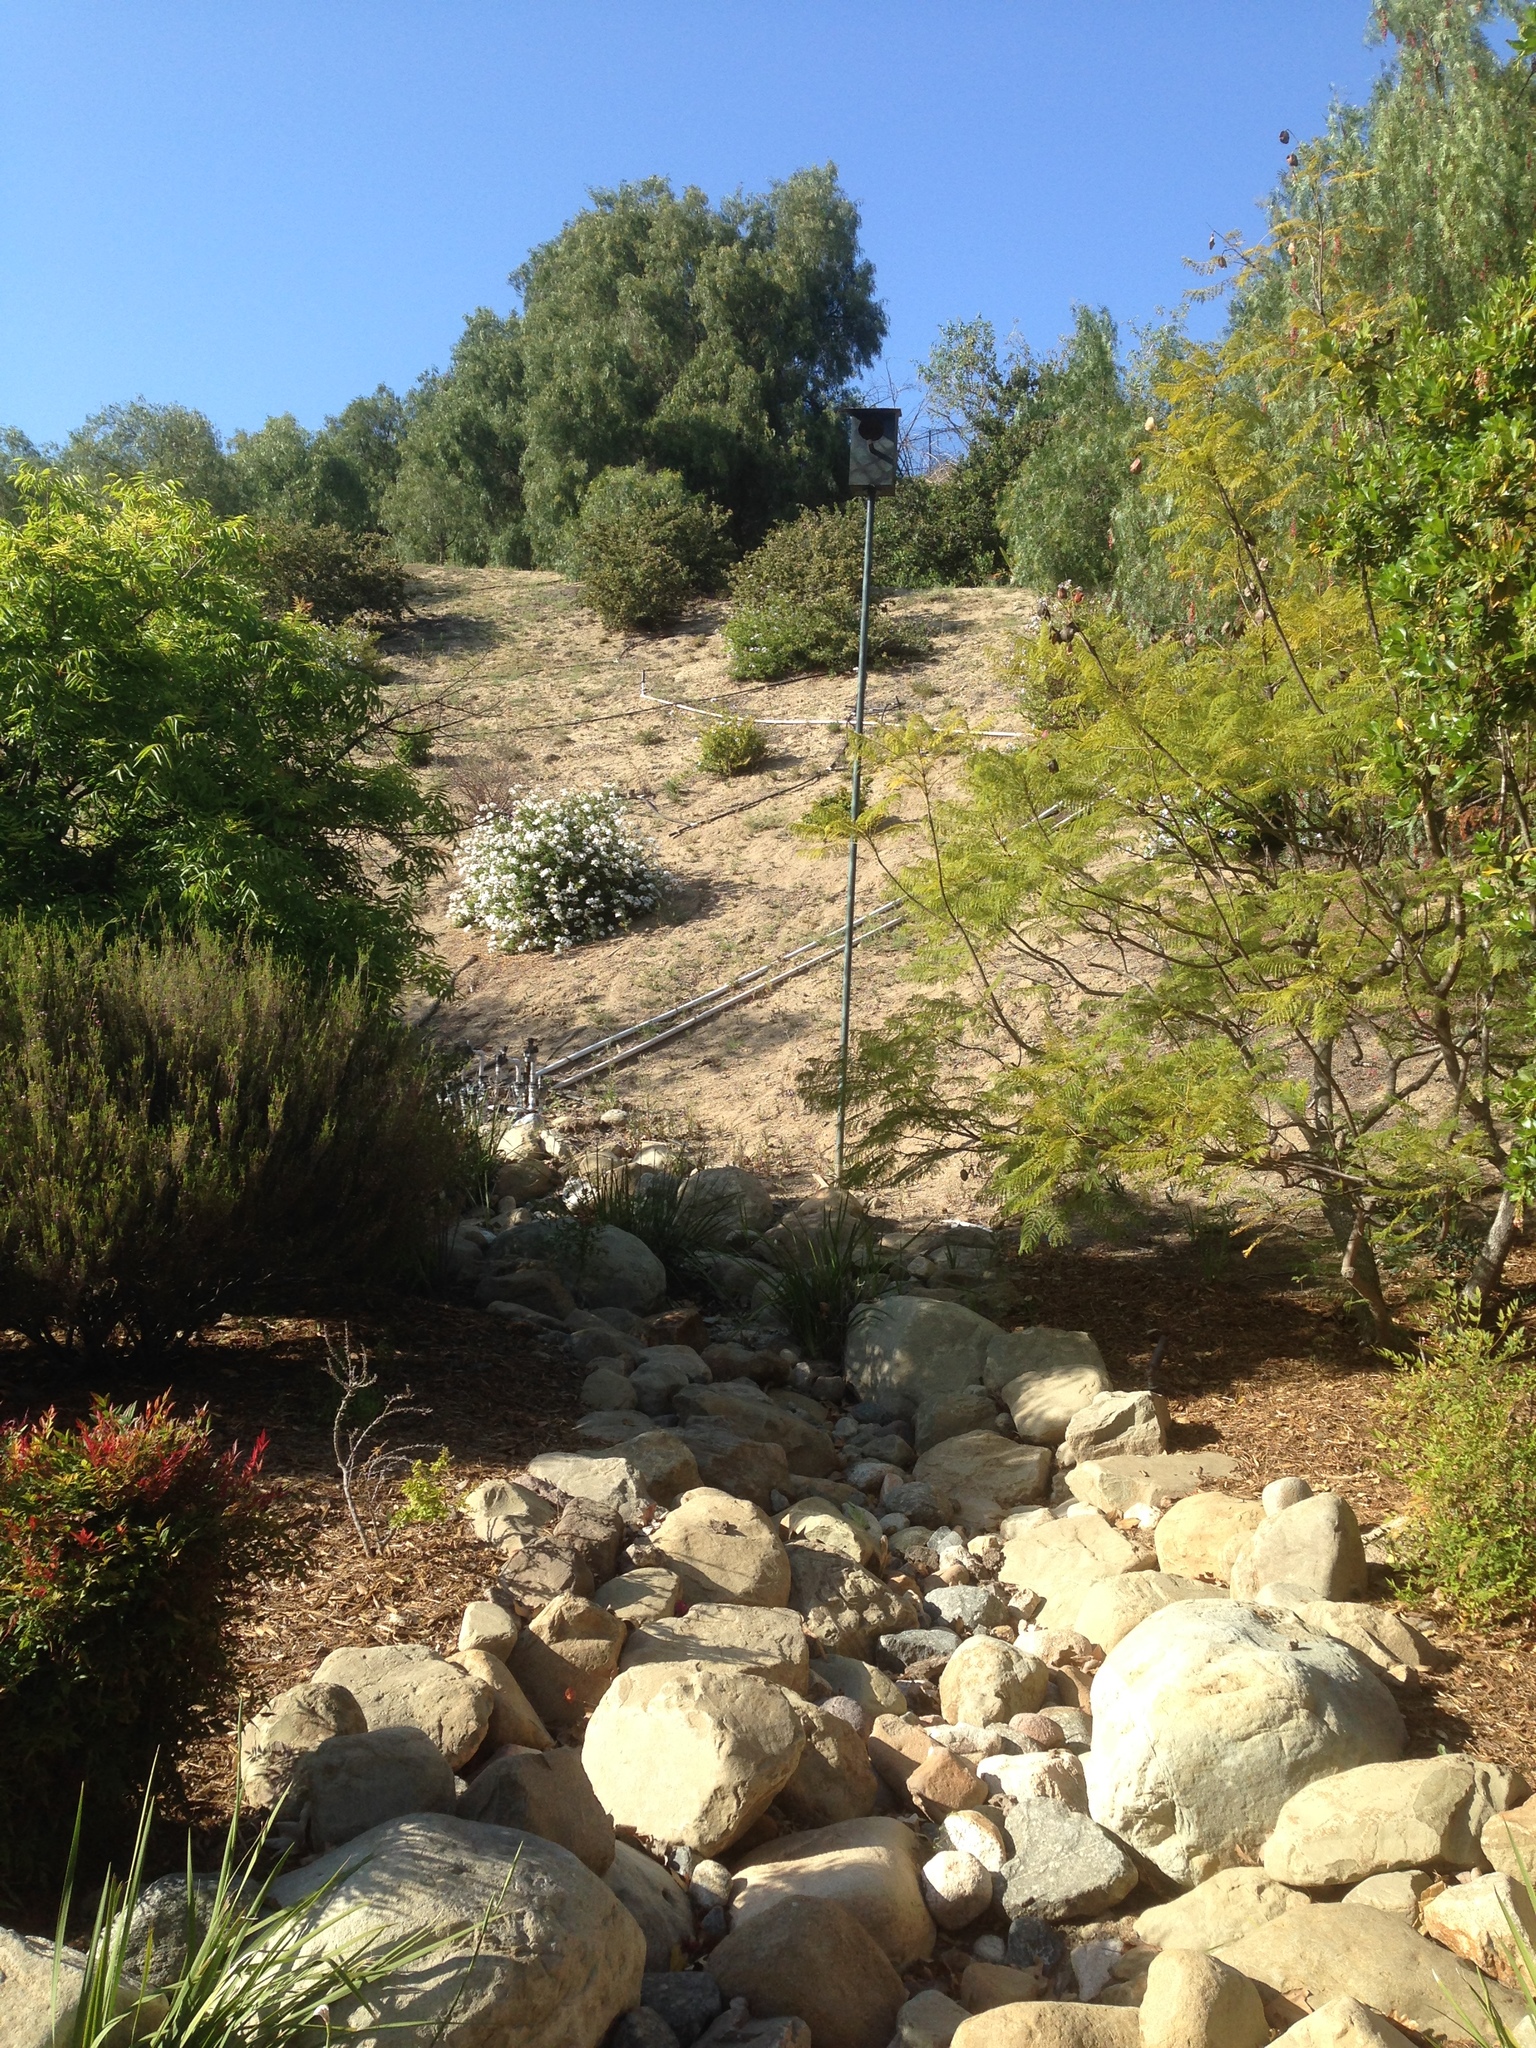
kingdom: Animalia
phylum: Chordata
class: Aves
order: Strigiformes
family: Strigidae
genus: Aegolius
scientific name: Aegolius acadicus
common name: Northern saw-whet owl
